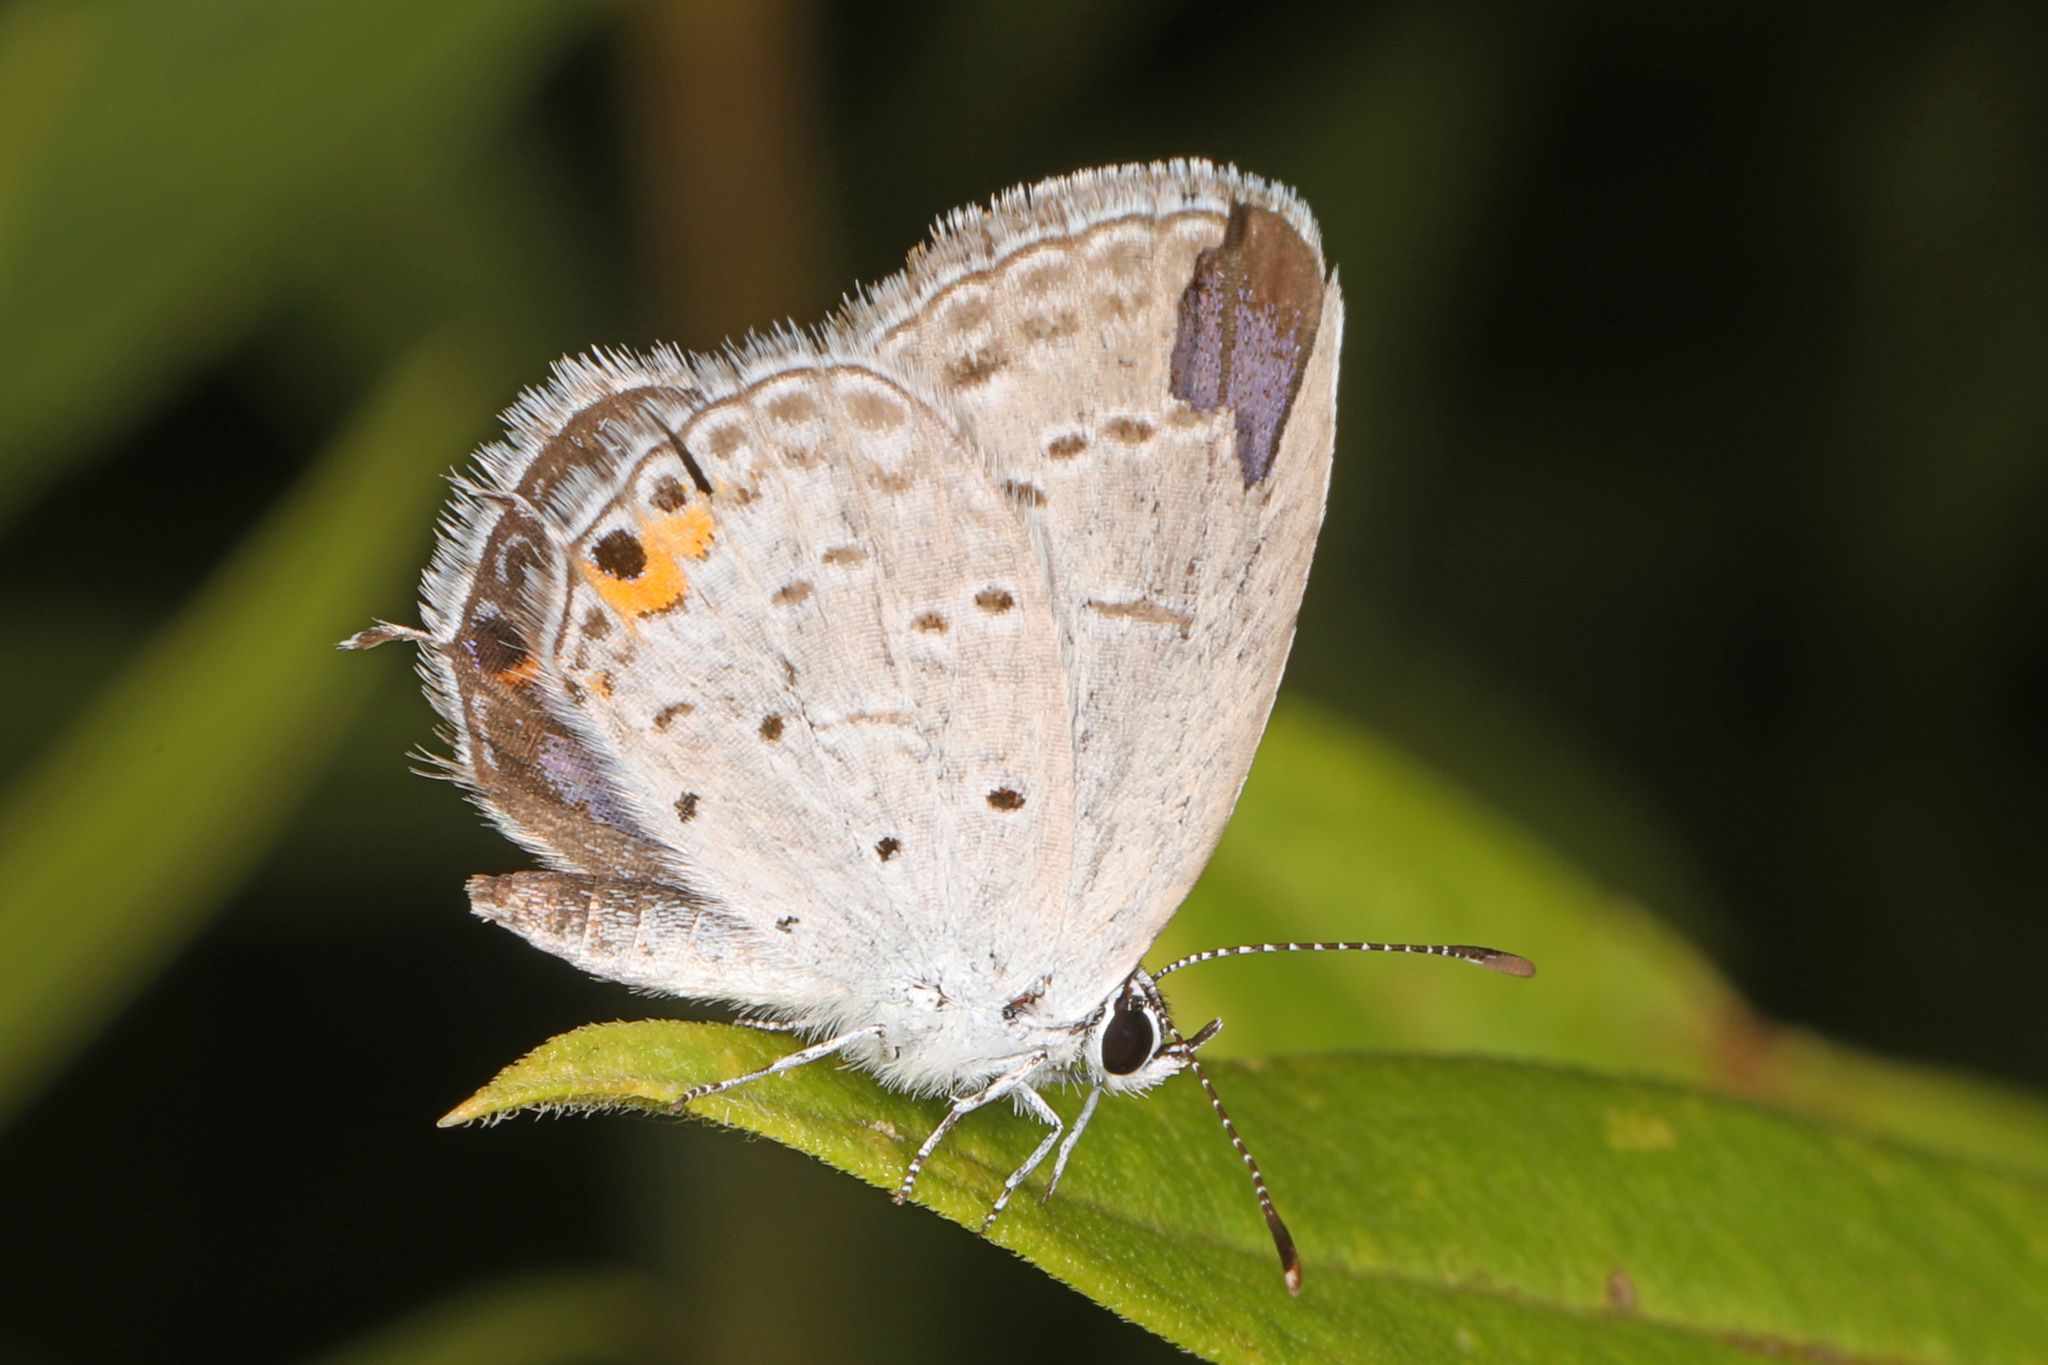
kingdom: Animalia
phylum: Arthropoda
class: Insecta
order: Lepidoptera
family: Lycaenidae
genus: Elkalyce
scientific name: Elkalyce comyntas
